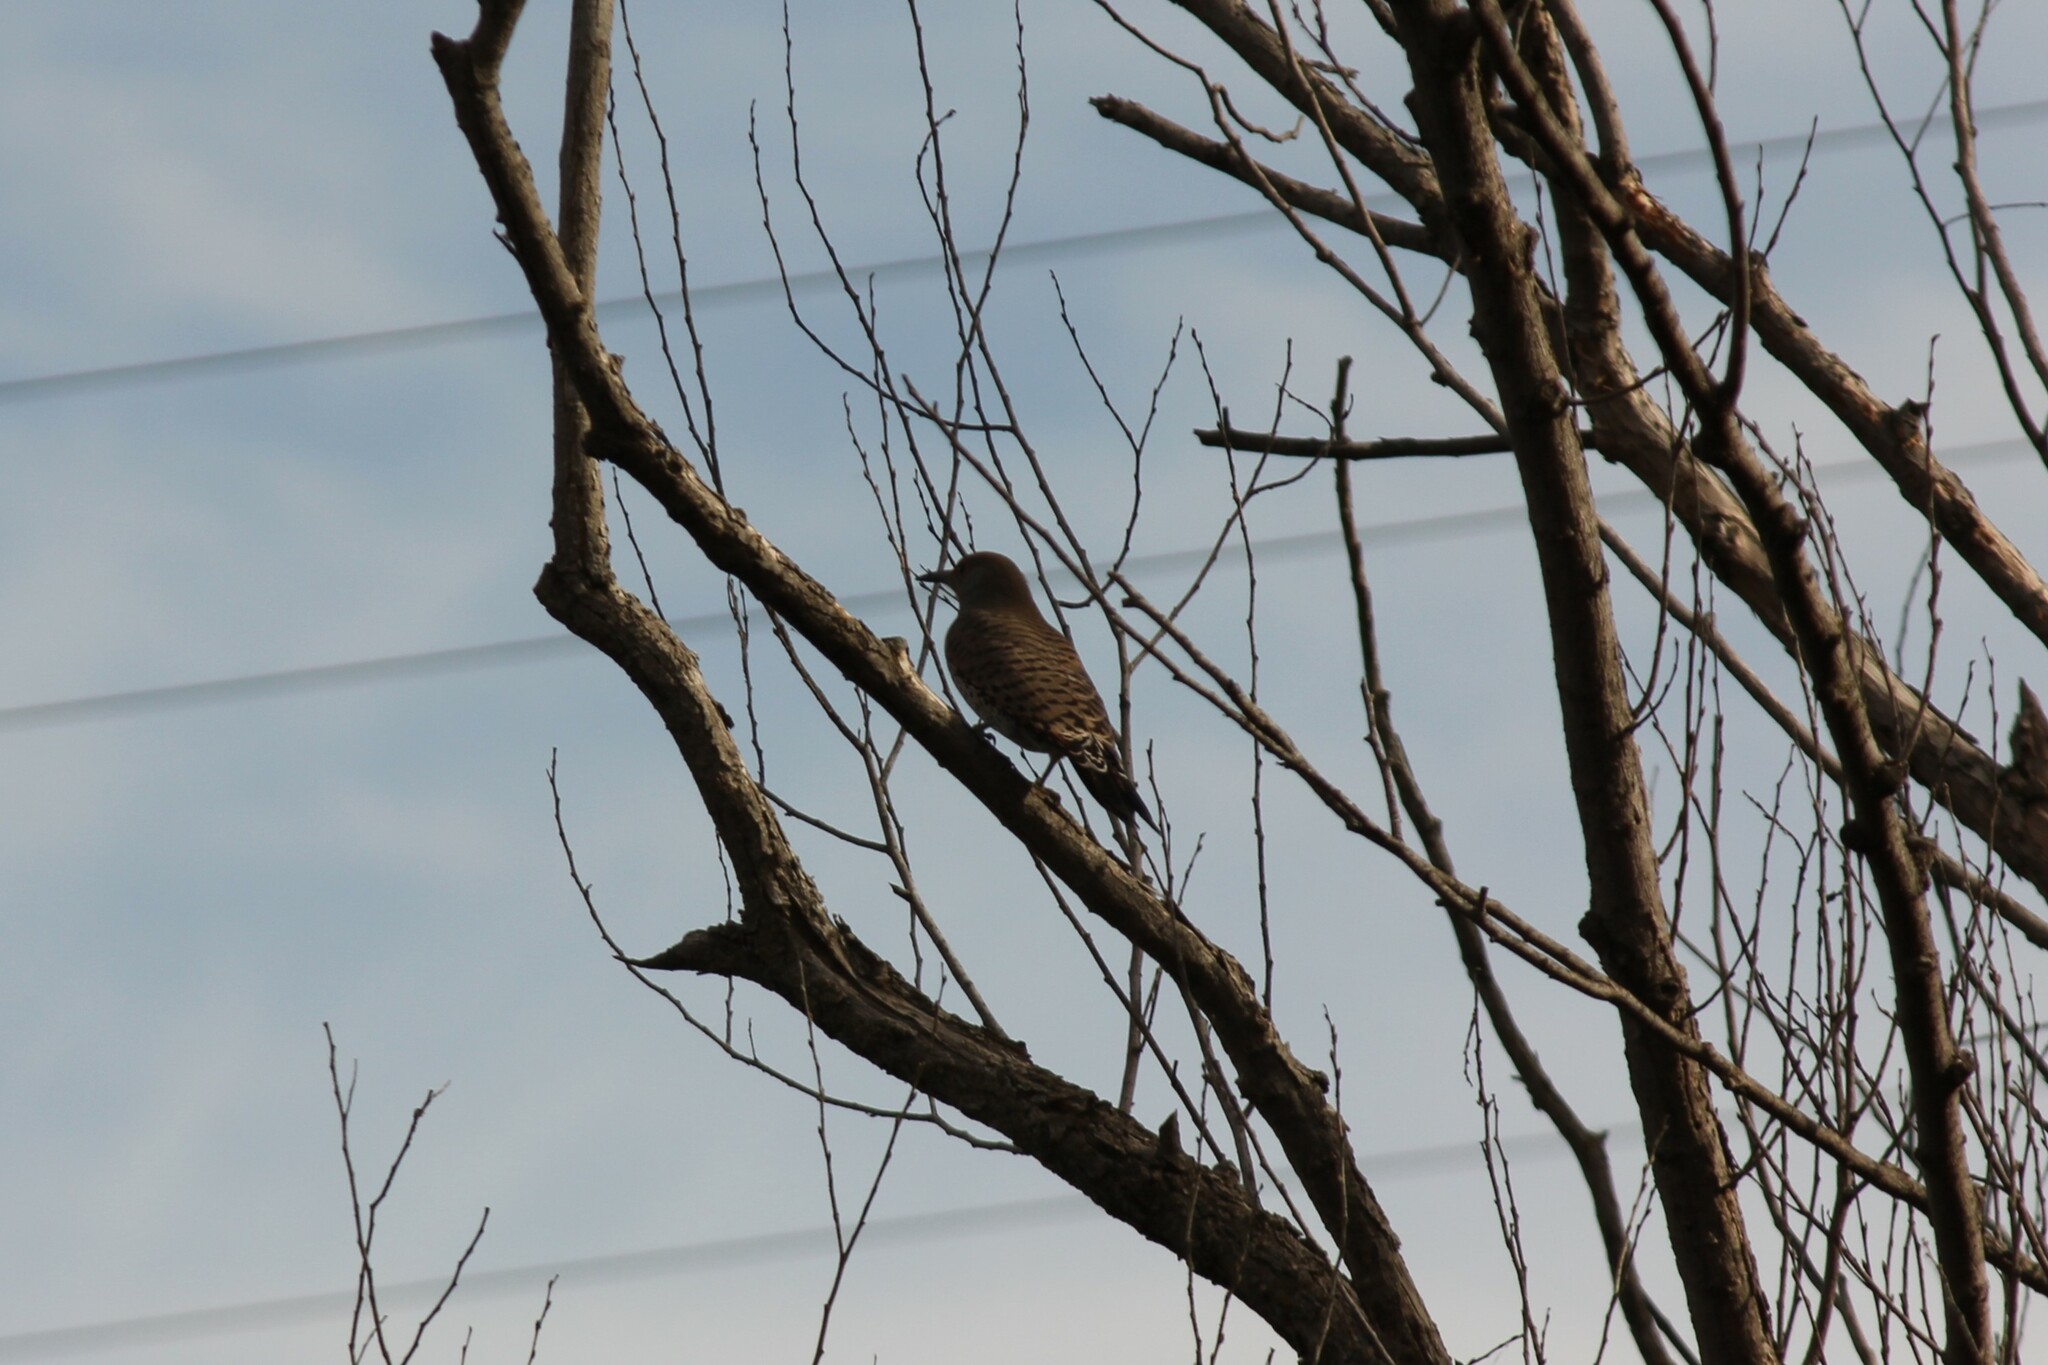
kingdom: Animalia
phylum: Chordata
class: Aves
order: Piciformes
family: Picidae
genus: Colaptes
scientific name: Colaptes auratus
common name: Northern flicker
